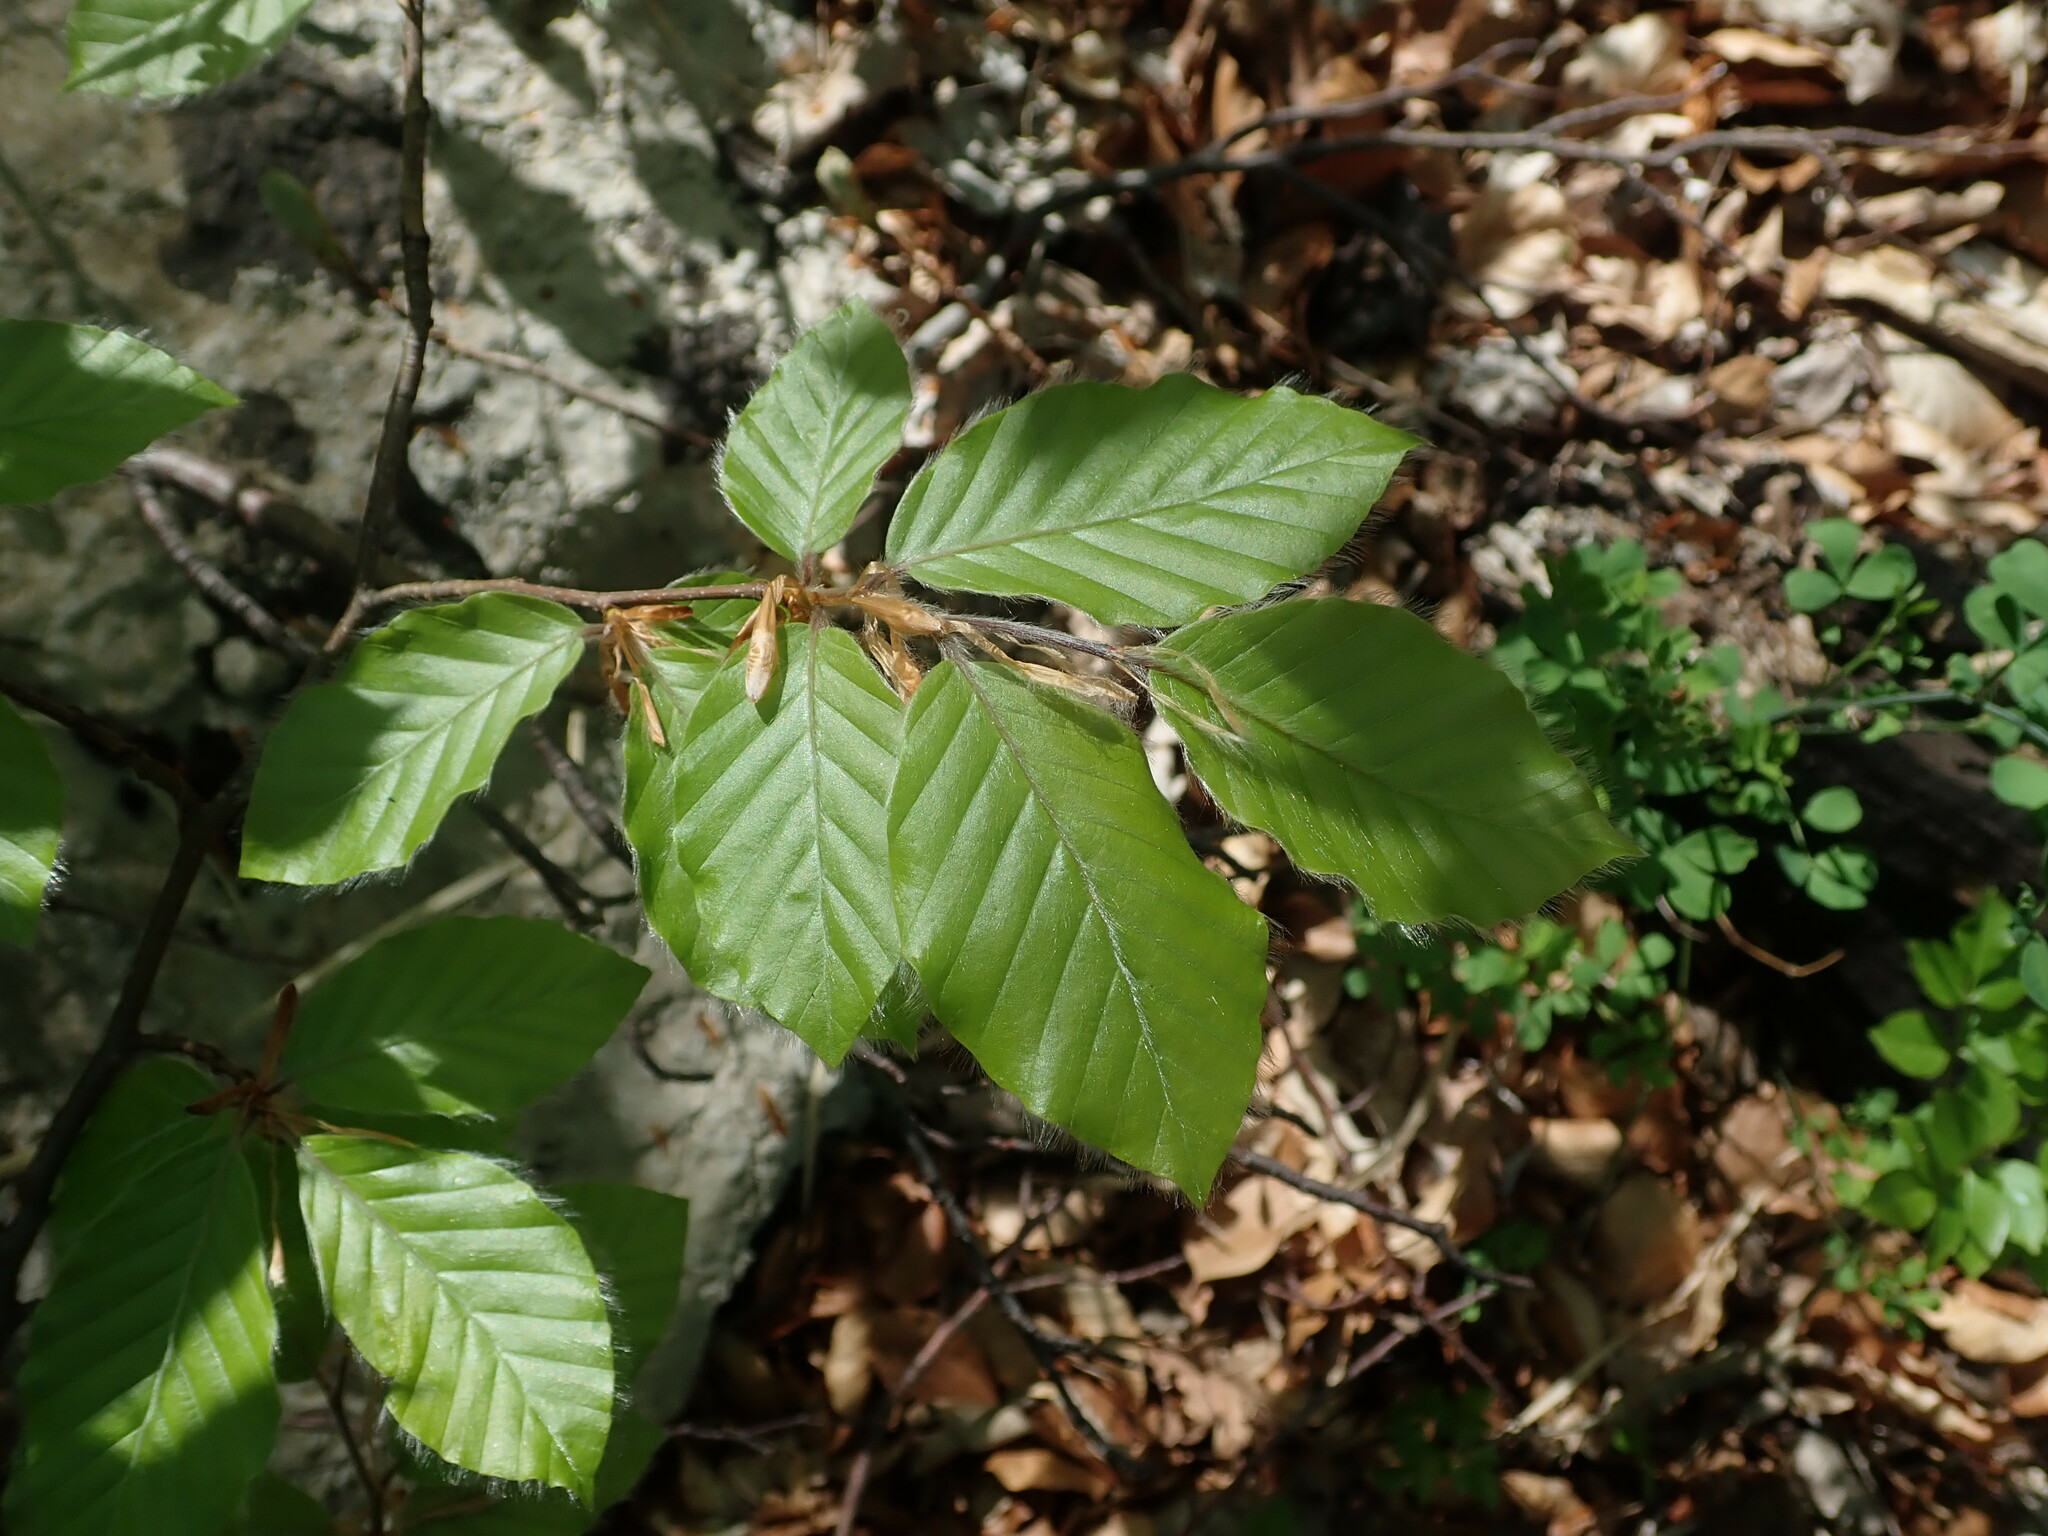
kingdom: Plantae
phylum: Tracheophyta
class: Magnoliopsida
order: Fagales
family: Fagaceae
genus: Fagus
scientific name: Fagus sylvatica
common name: Beech
